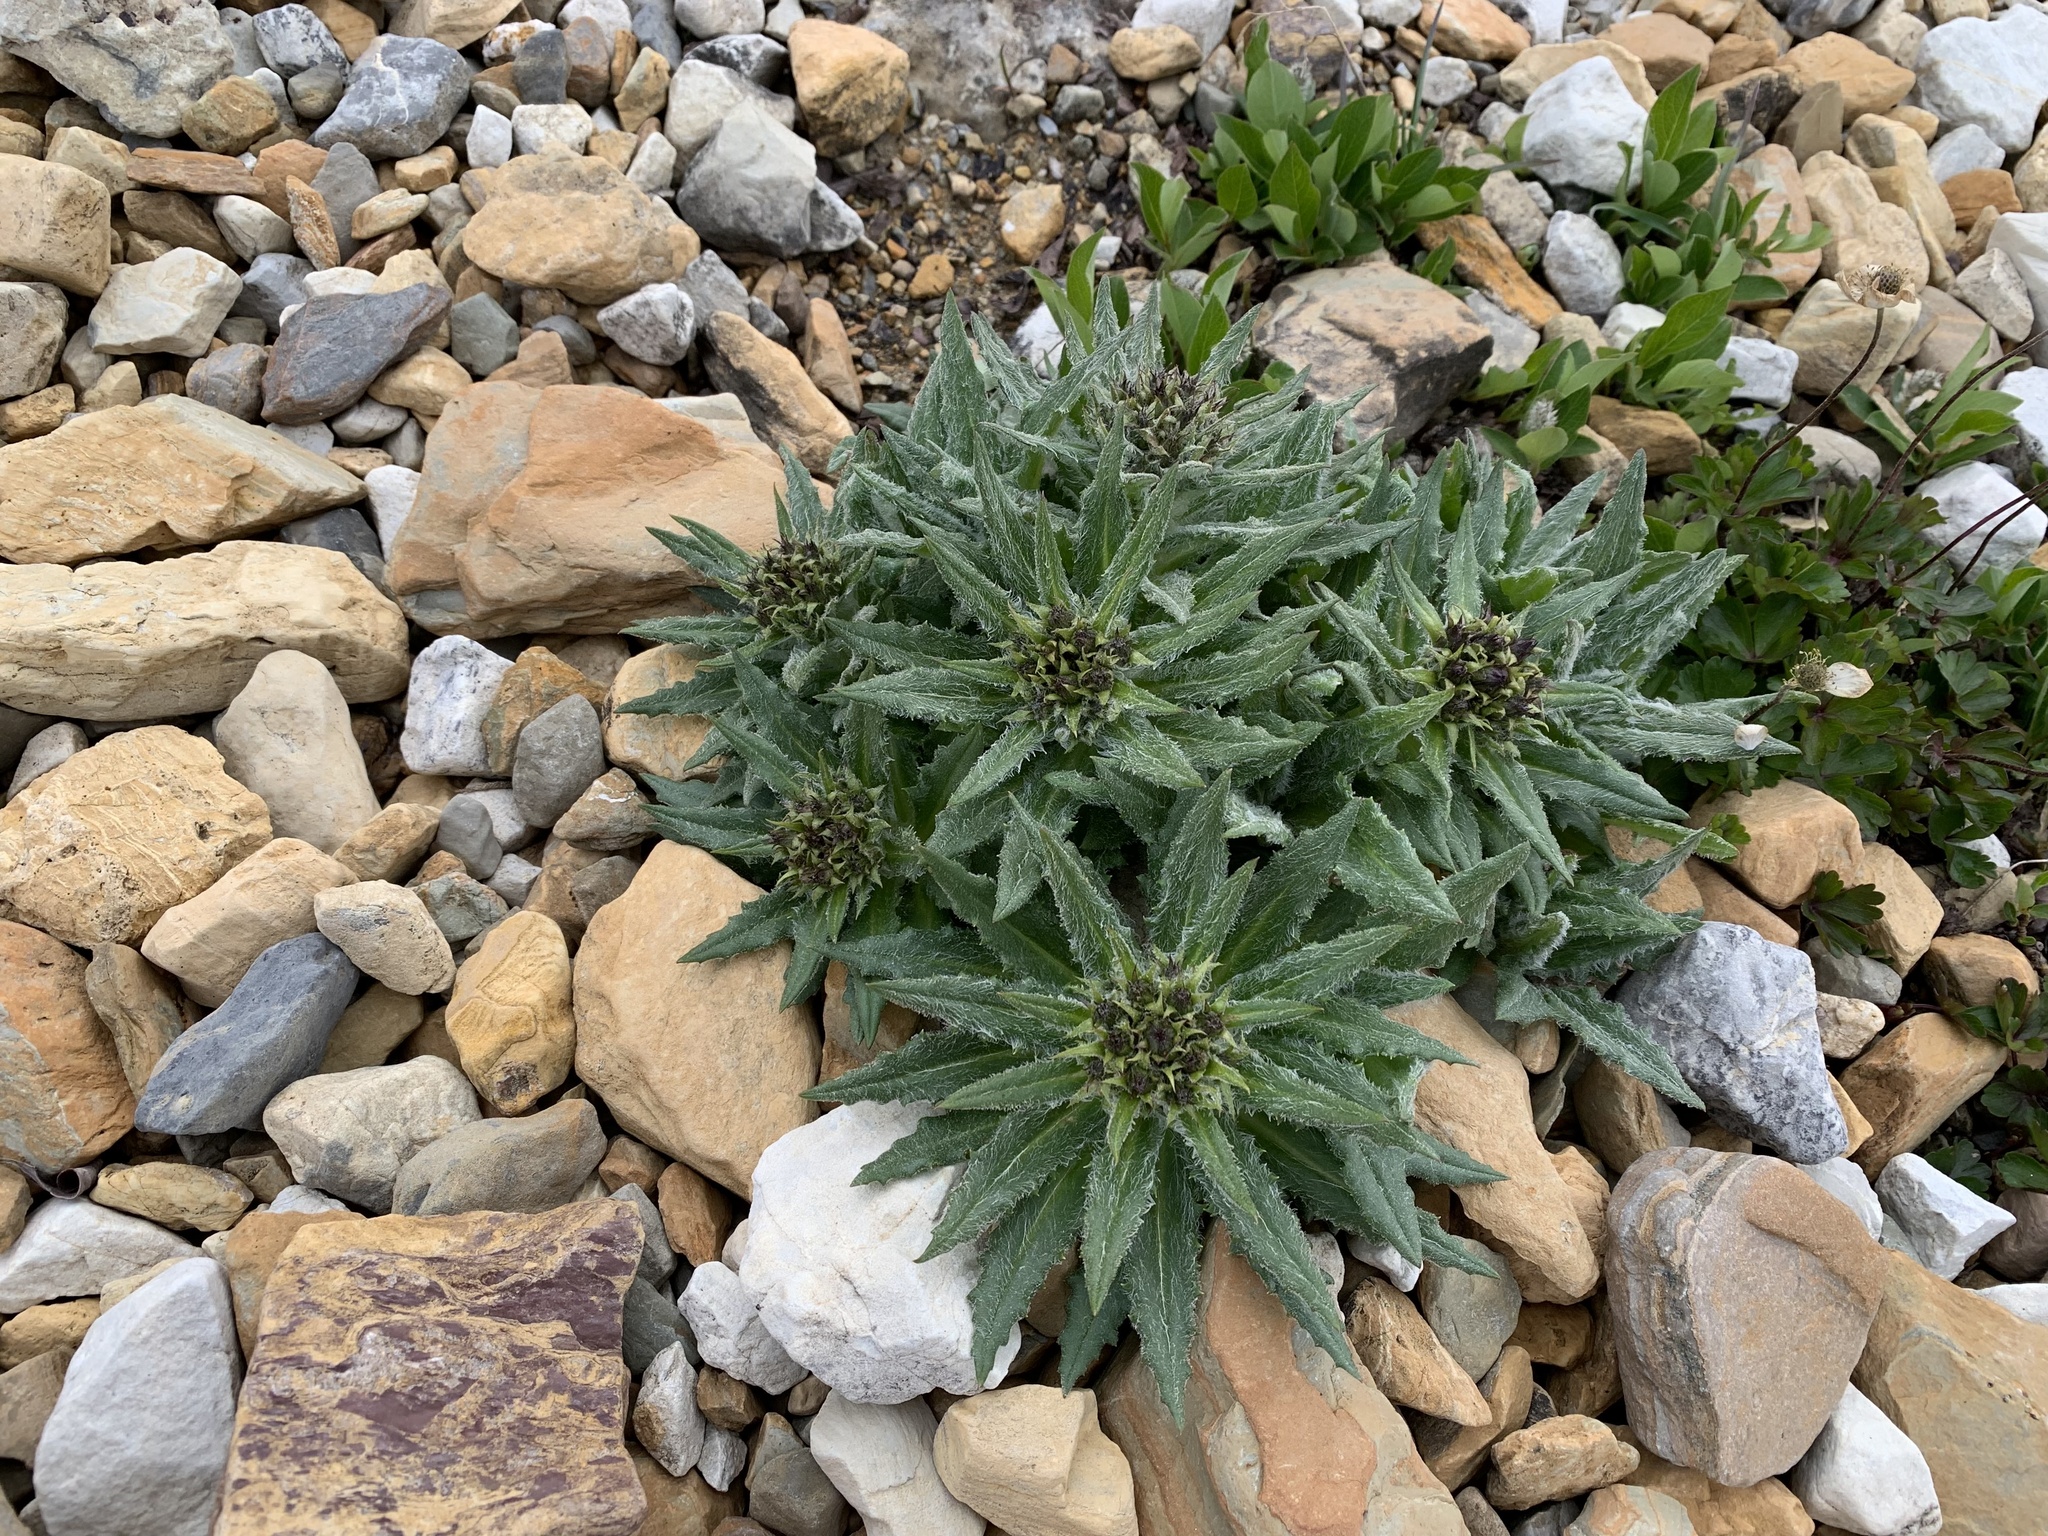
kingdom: Plantae
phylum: Tracheophyta
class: Magnoliopsida
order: Asterales
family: Asteraceae
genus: Saussurea
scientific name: Saussurea nuda
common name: Chaffless saw-wort
